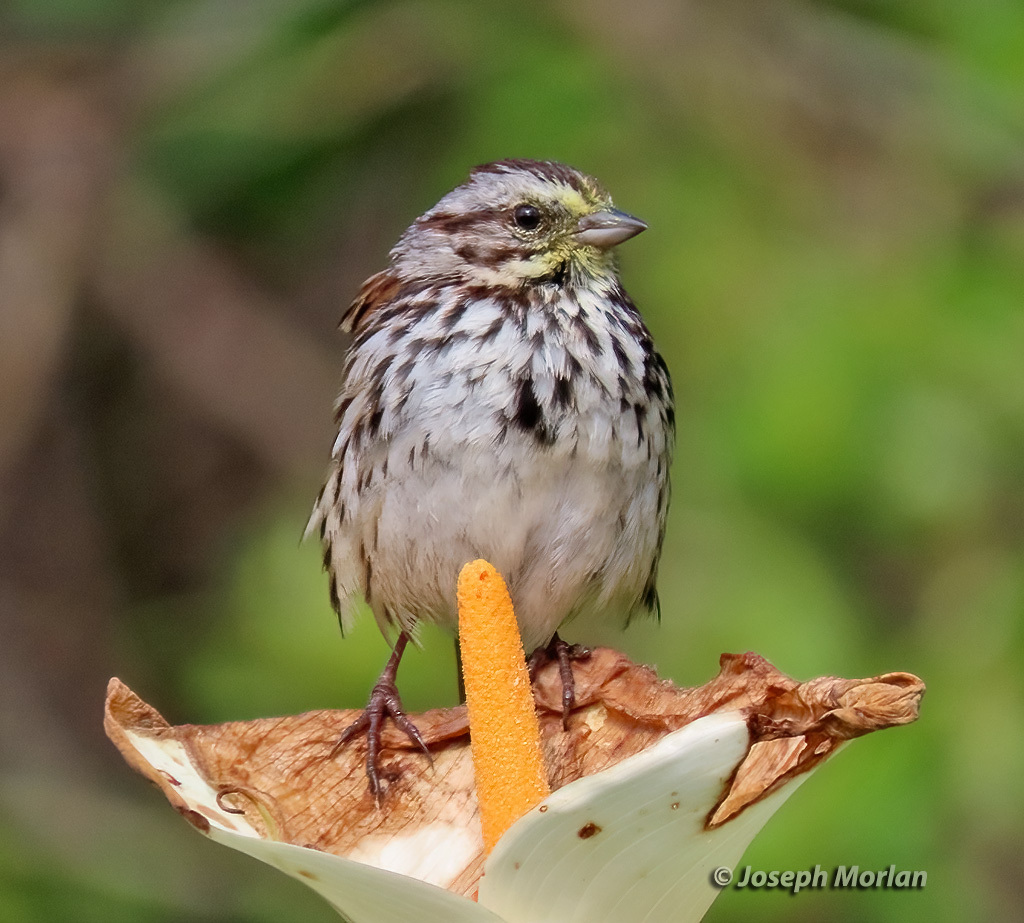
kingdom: Animalia
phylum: Chordata
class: Aves
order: Passeriformes
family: Passerellidae
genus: Melospiza
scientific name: Melospiza melodia
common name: Song sparrow
